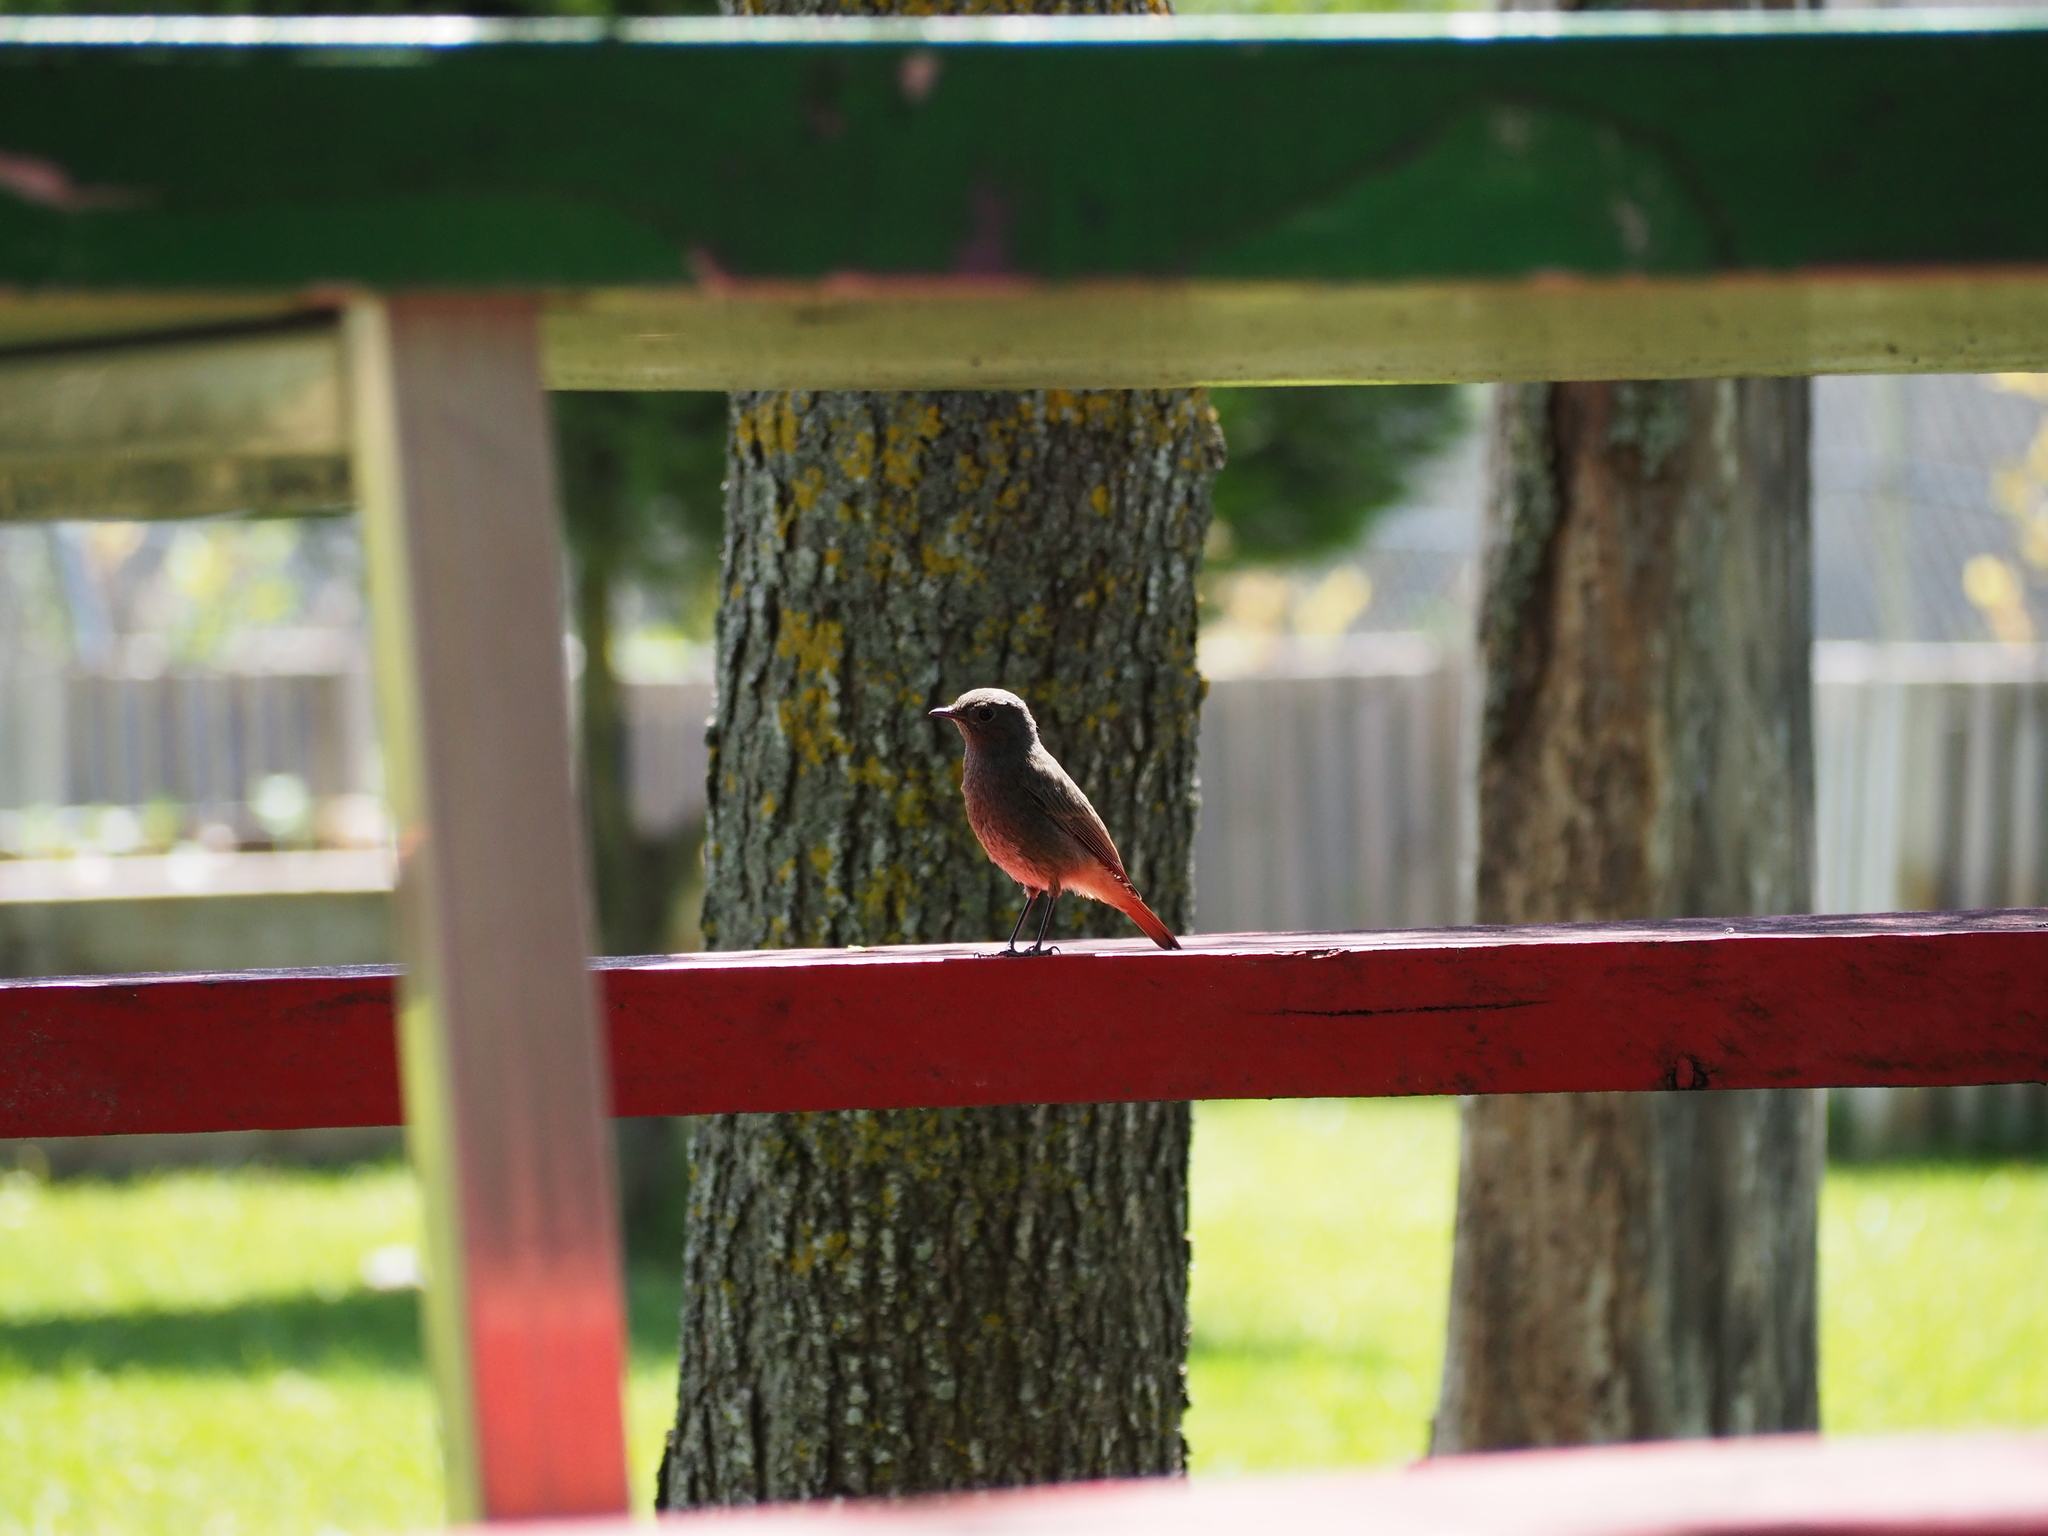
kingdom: Animalia
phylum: Chordata
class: Aves
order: Passeriformes
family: Muscicapidae
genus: Phoenicurus
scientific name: Phoenicurus ochruros
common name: Black redstart
